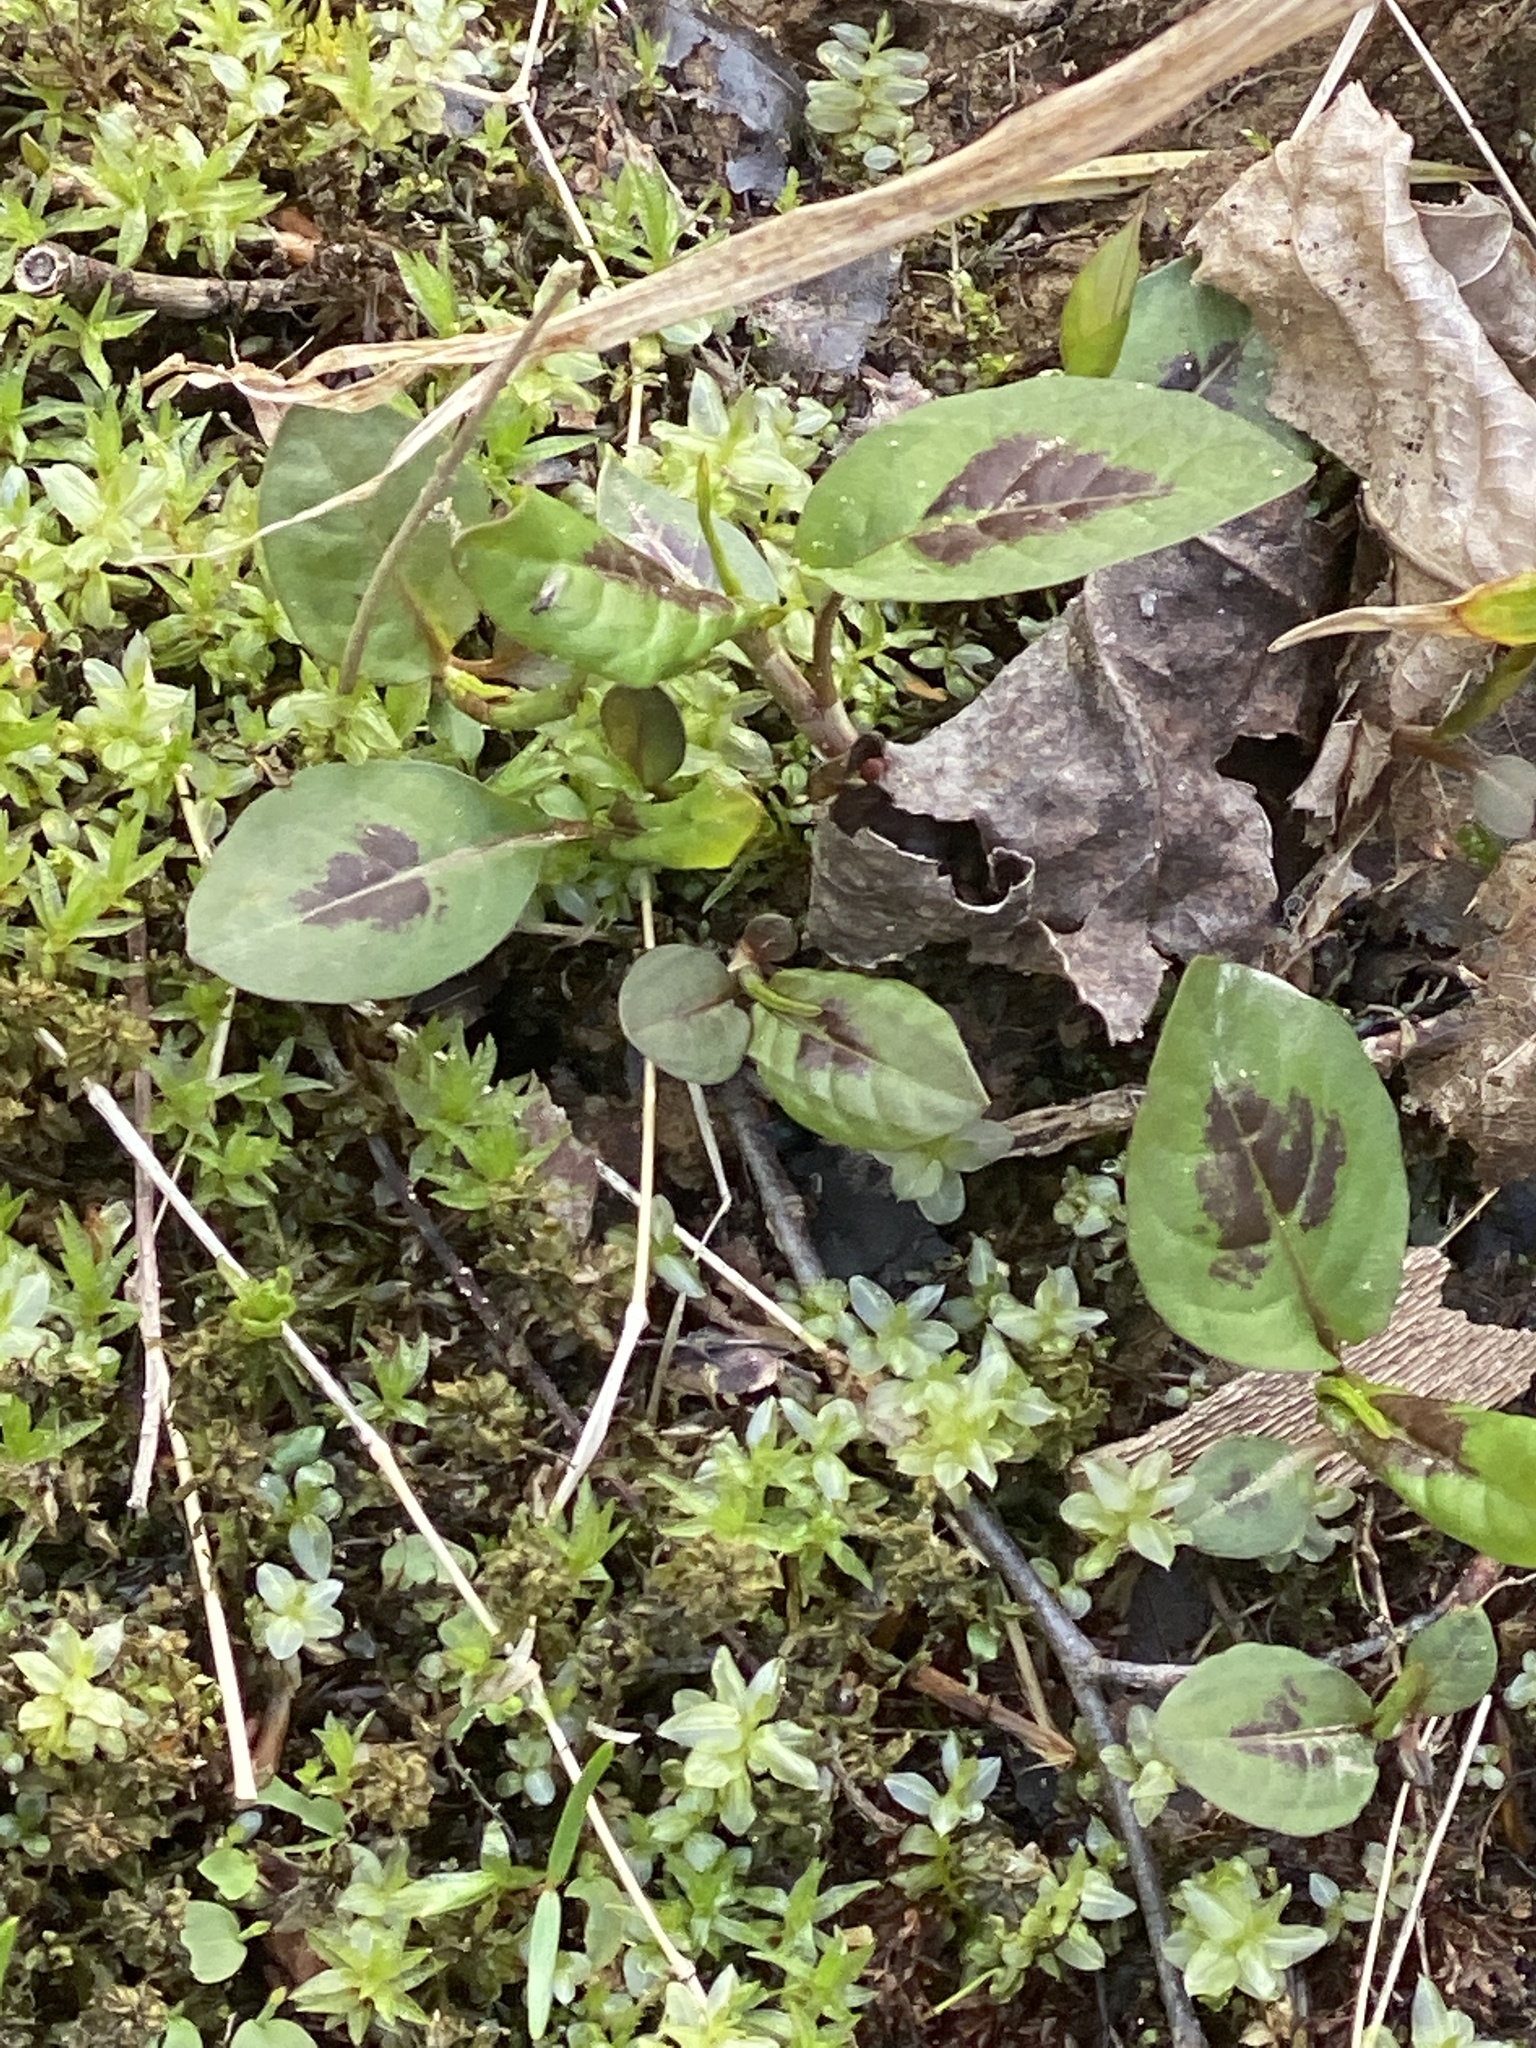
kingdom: Plantae
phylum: Tracheophyta
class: Magnoliopsida
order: Caryophyllales
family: Polygonaceae
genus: Persicaria
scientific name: Persicaria virginiana
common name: Jumpseed
